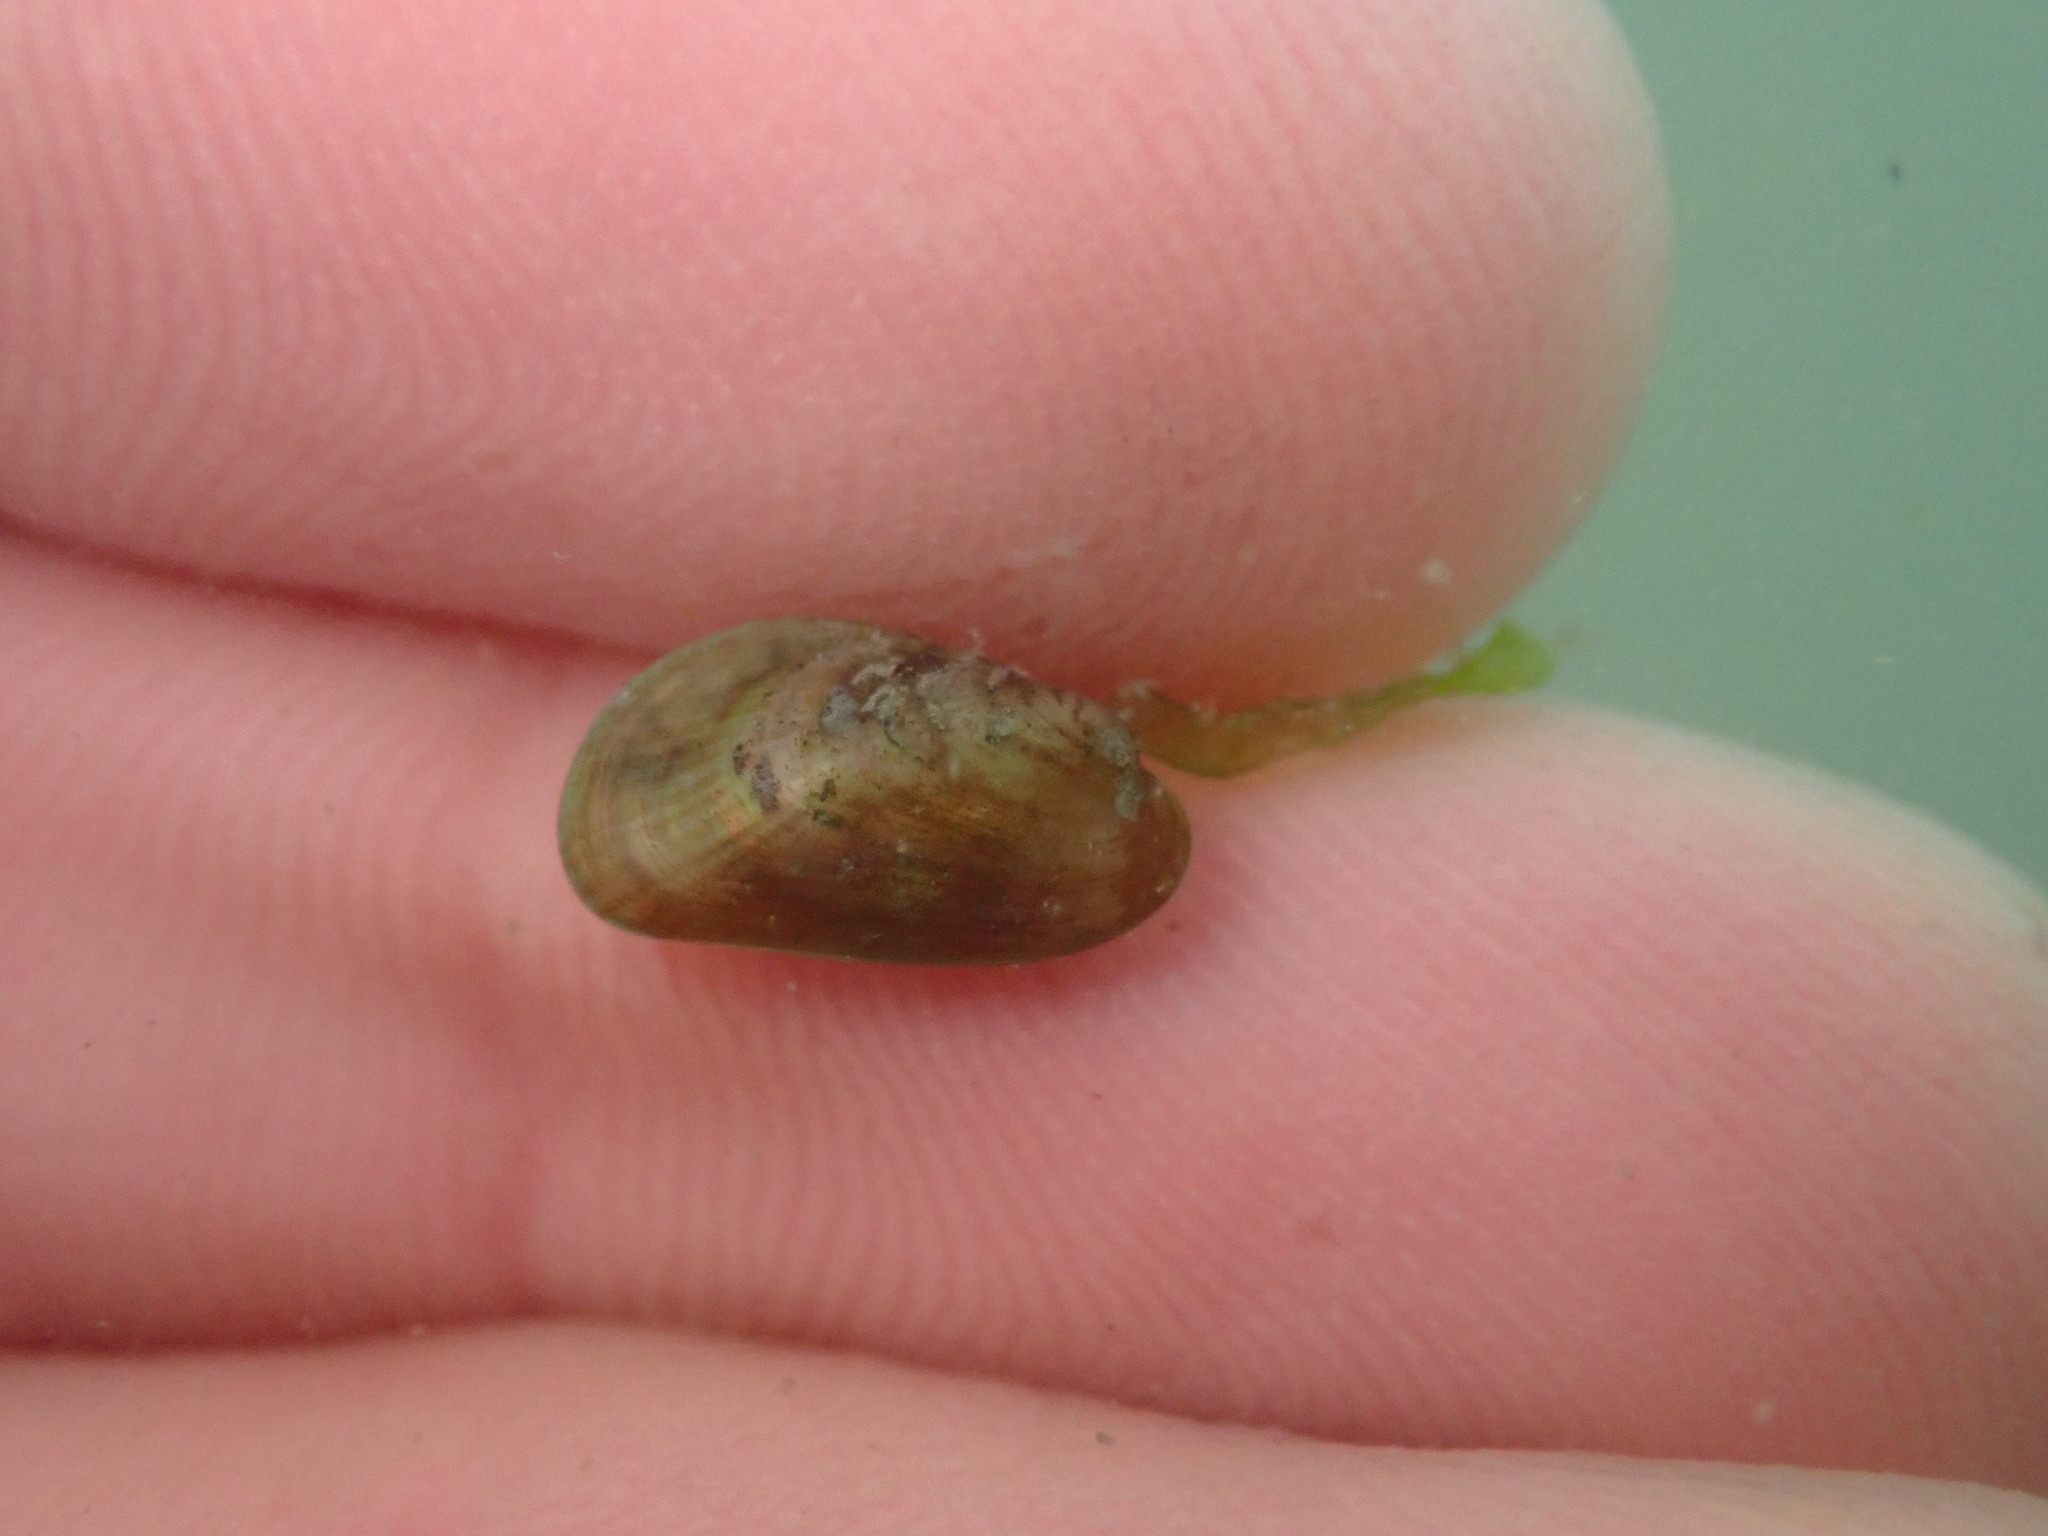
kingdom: Animalia
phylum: Mollusca
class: Bivalvia
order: Mytilida
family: Mytilidae
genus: Arcuatula
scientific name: Arcuatula senhousia
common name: Asian mussel
